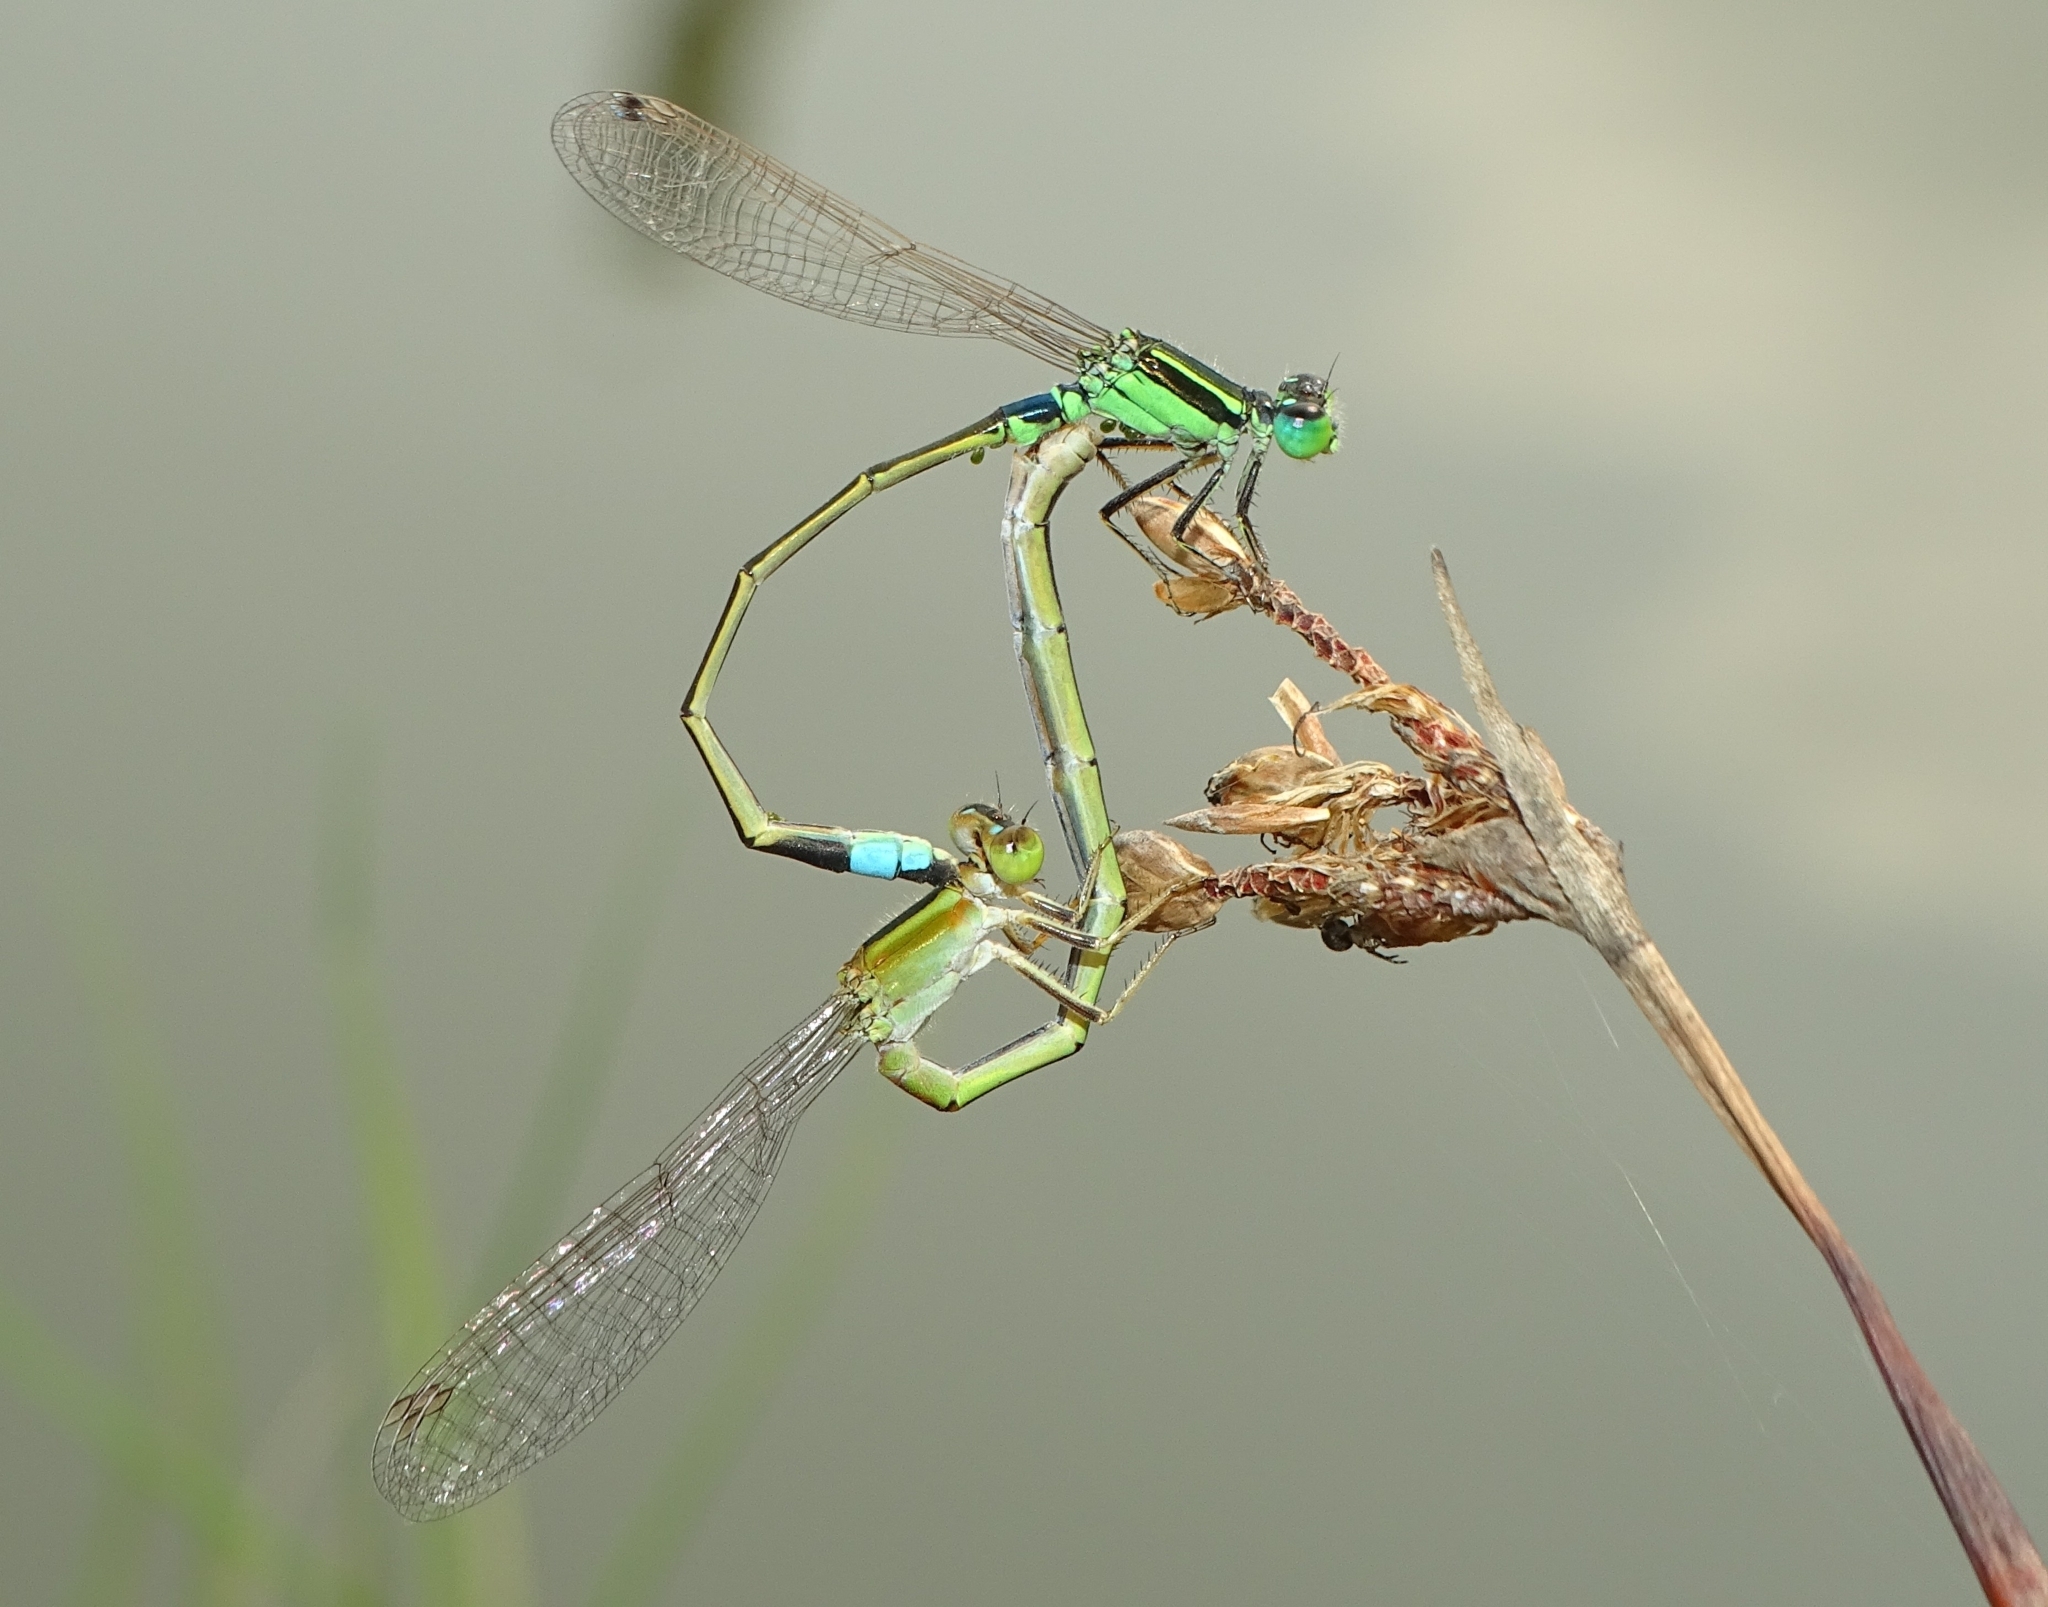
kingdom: Animalia
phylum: Arthropoda
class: Insecta
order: Odonata
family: Coenagrionidae
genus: Ischnura
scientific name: Ischnura senegalensis
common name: Tropical bluetail
